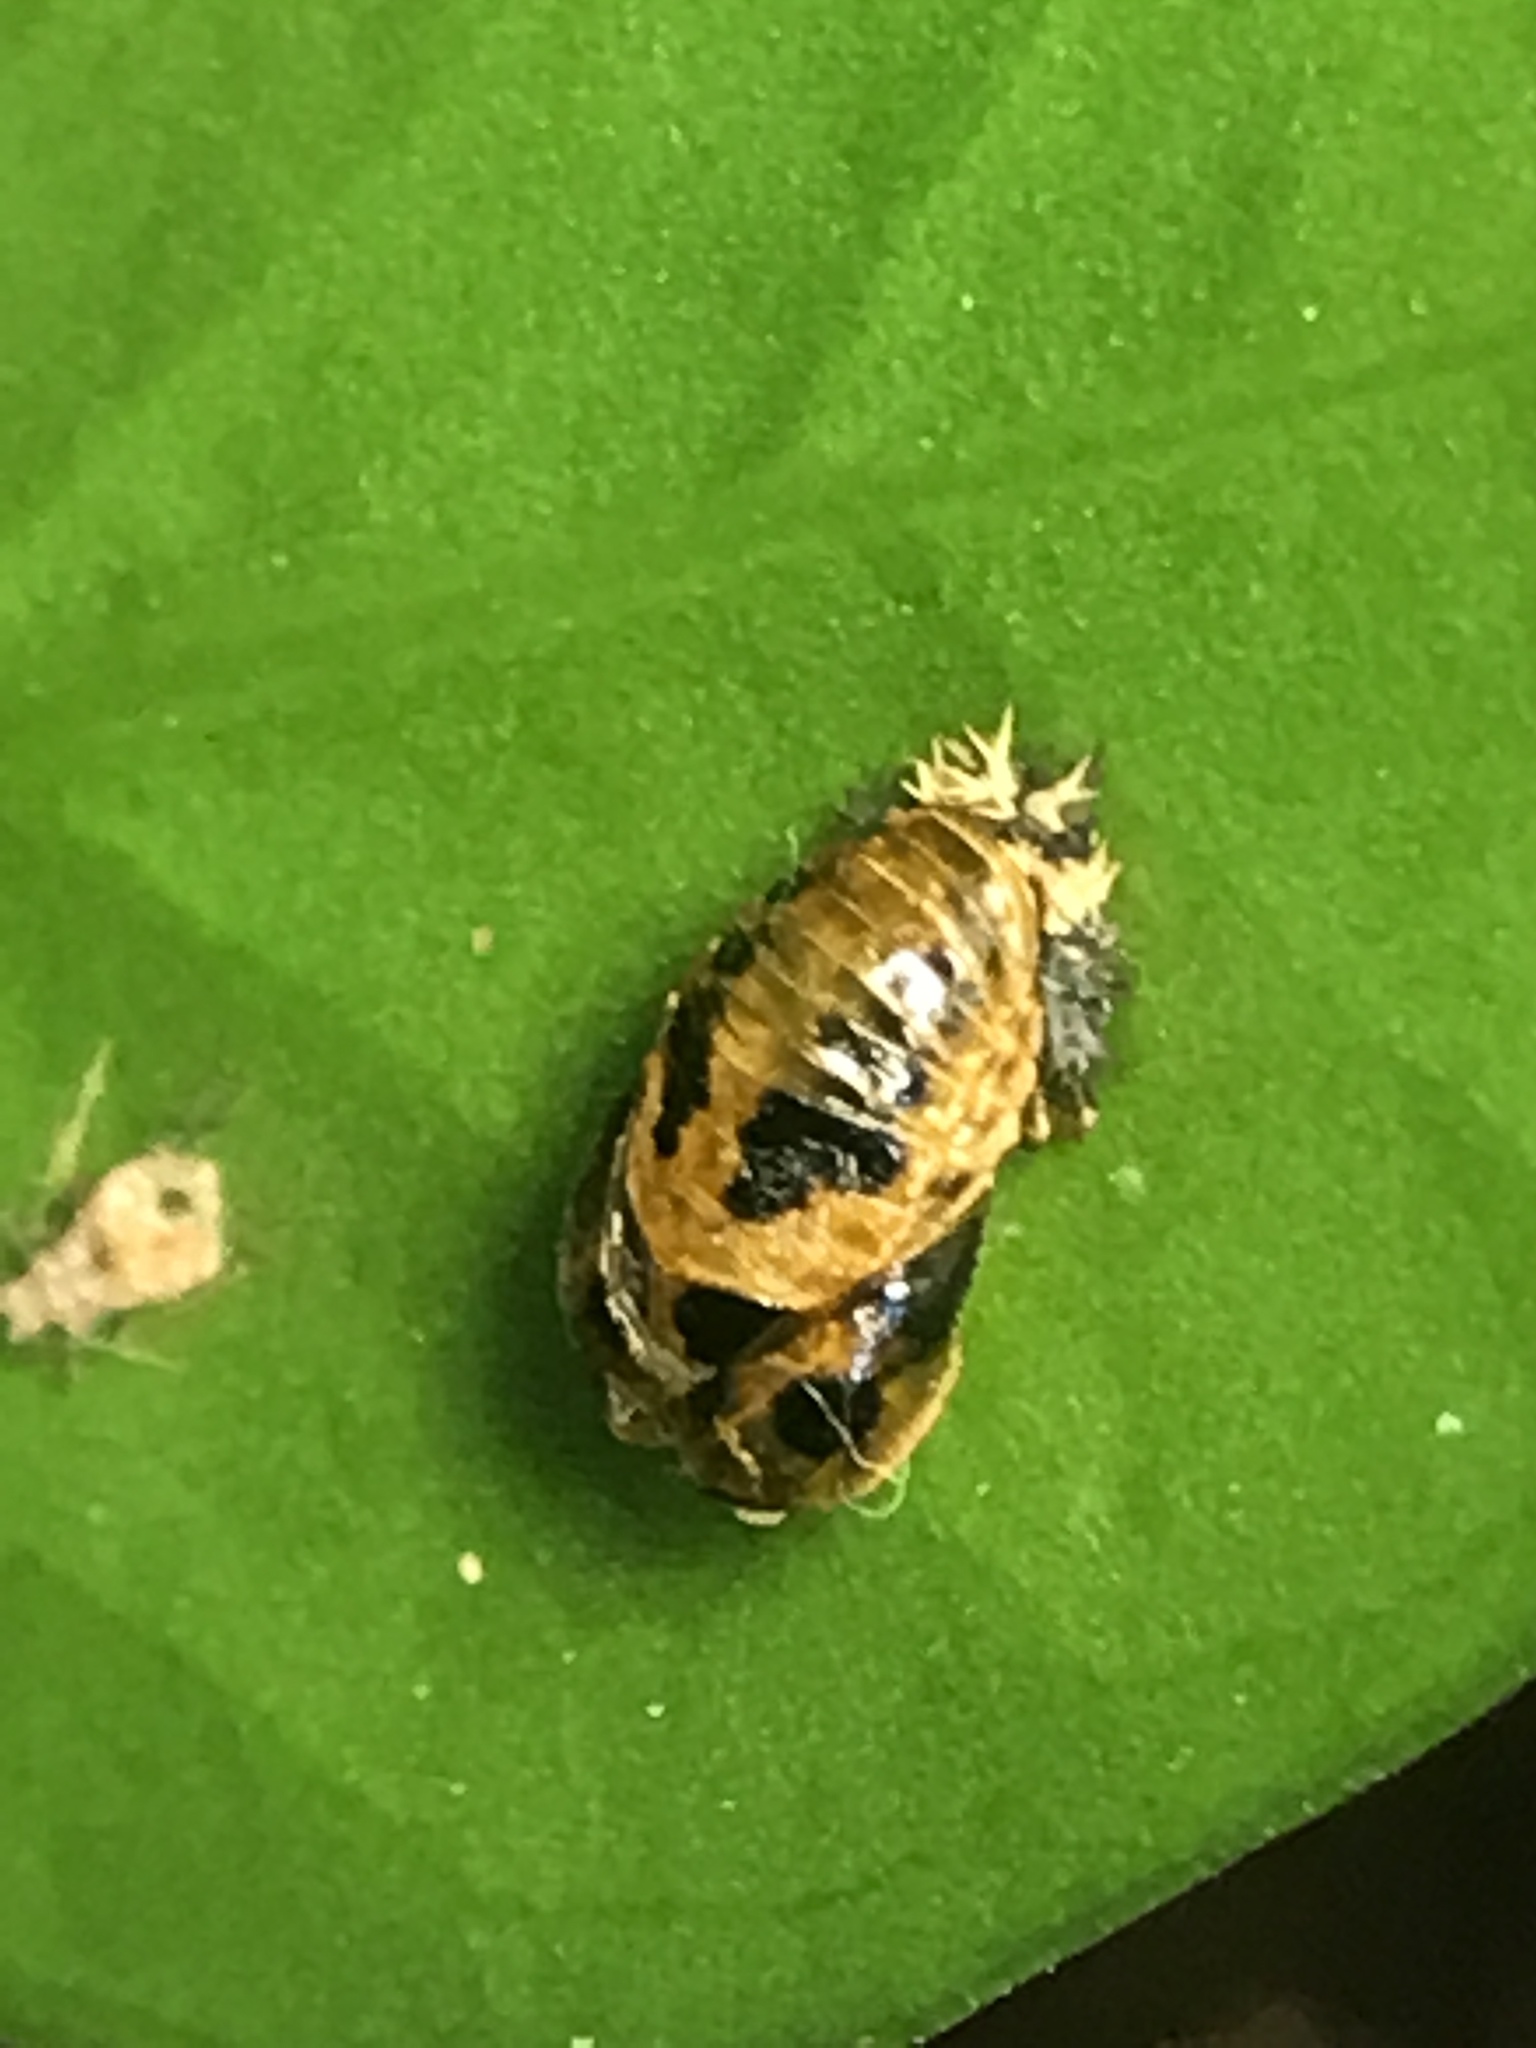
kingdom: Animalia
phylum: Arthropoda
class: Insecta
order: Coleoptera
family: Coccinellidae
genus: Harmonia
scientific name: Harmonia axyridis
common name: Harlequin ladybird
